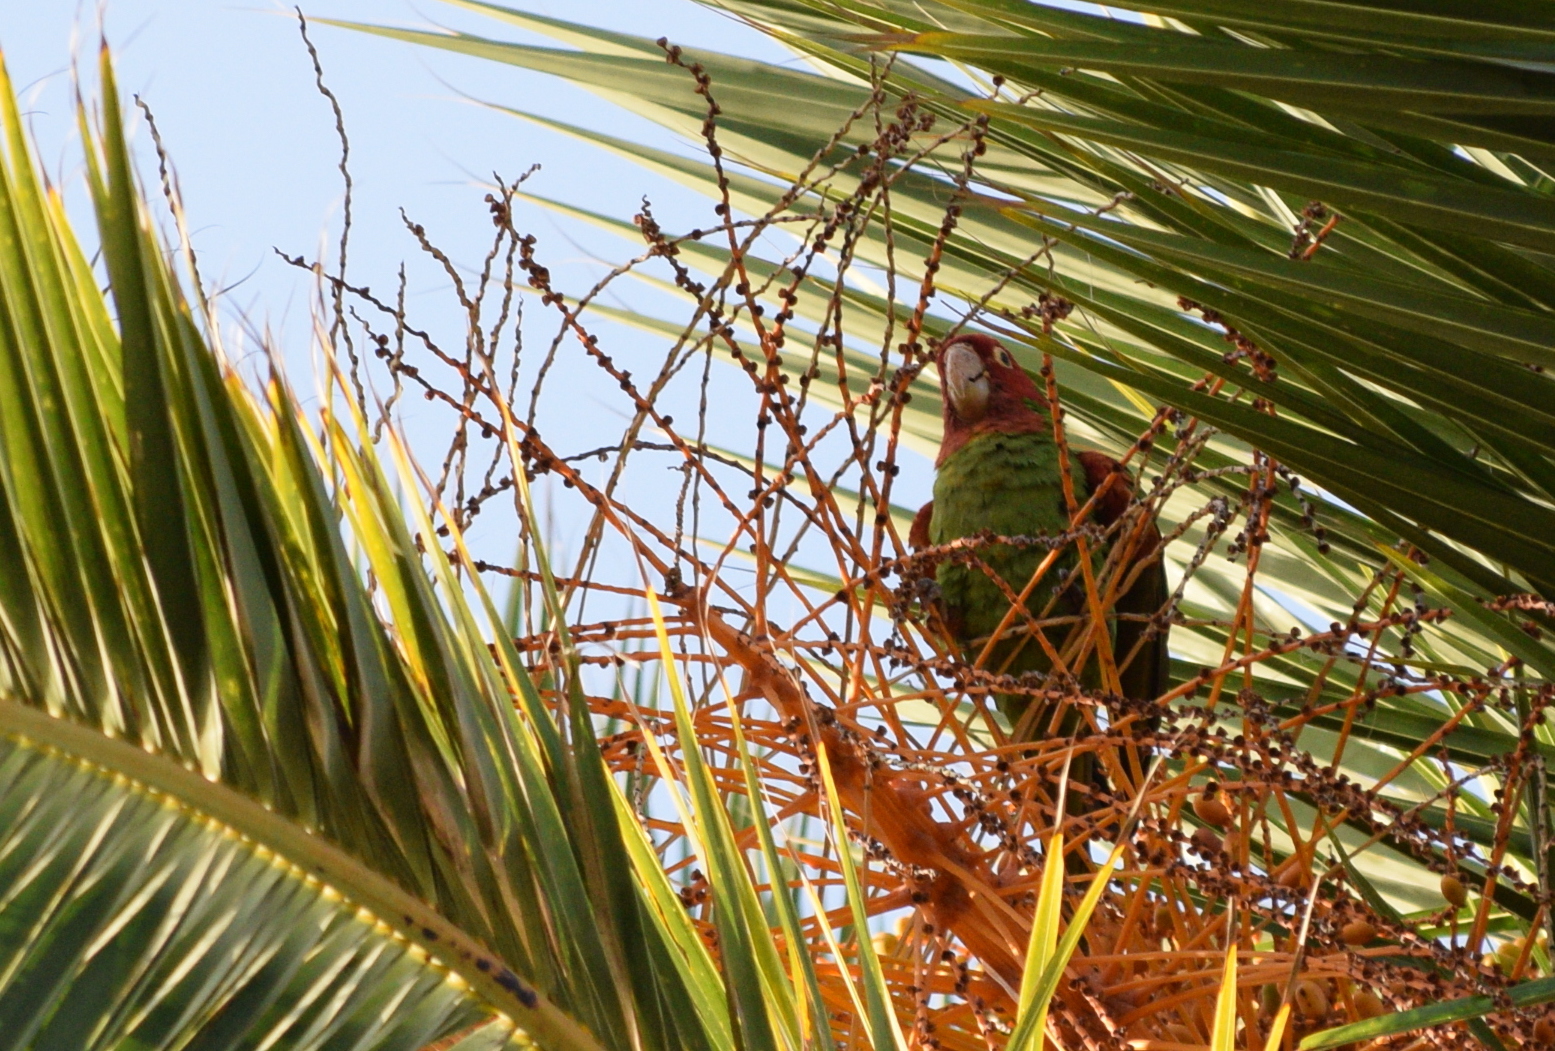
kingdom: Animalia
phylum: Chordata
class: Aves
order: Psittaciformes
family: Psittacidae
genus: Aratinga
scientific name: Aratinga erythrogenys
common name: Red-masked parakeet
